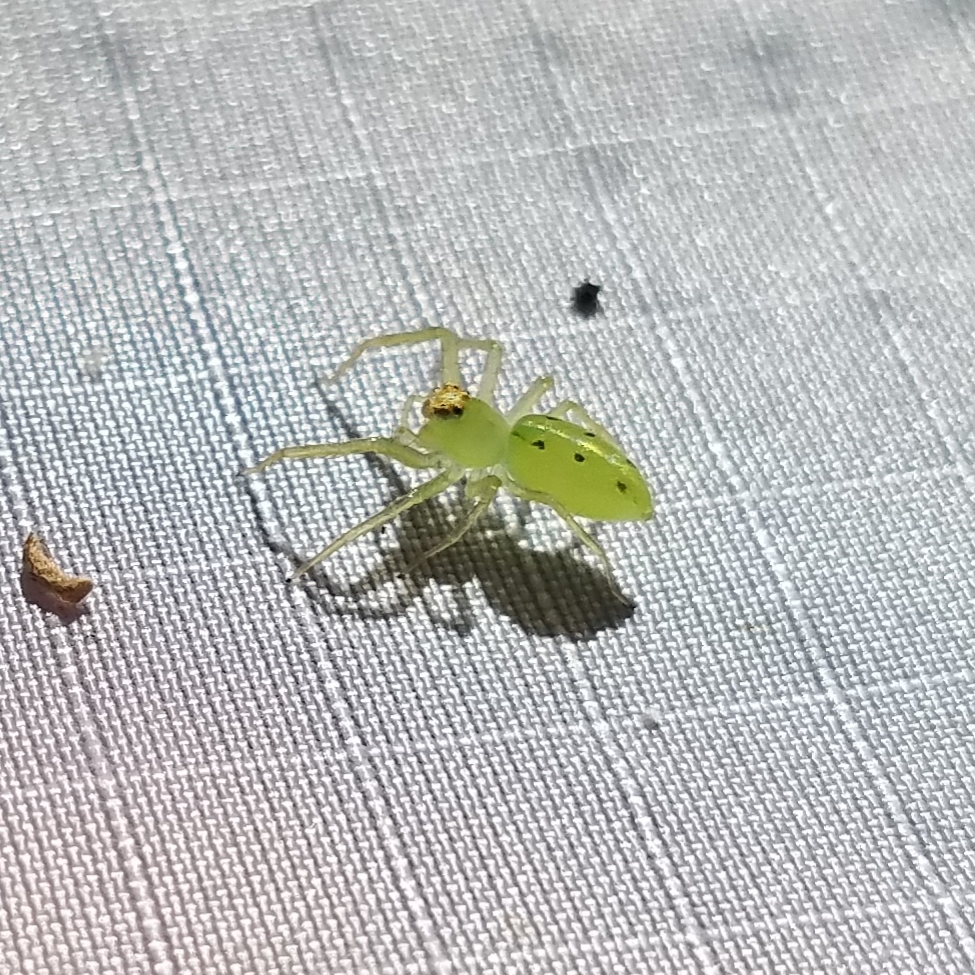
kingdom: Animalia
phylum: Arthropoda
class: Arachnida
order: Araneae
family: Salticidae
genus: Lyssomanes
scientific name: Lyssomanes viridis
